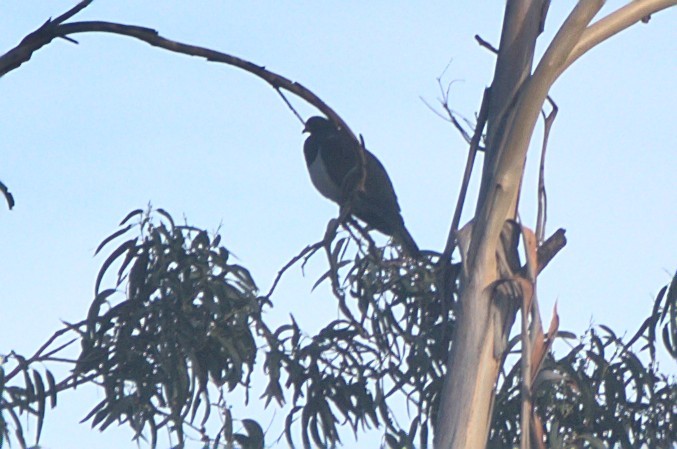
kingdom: Animalia
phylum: Chordata
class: Aves
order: Columbiformes
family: Columbidae
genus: Hemiphaga
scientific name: Hemiphaga novaeseelandiae
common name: New zealand pigeon
